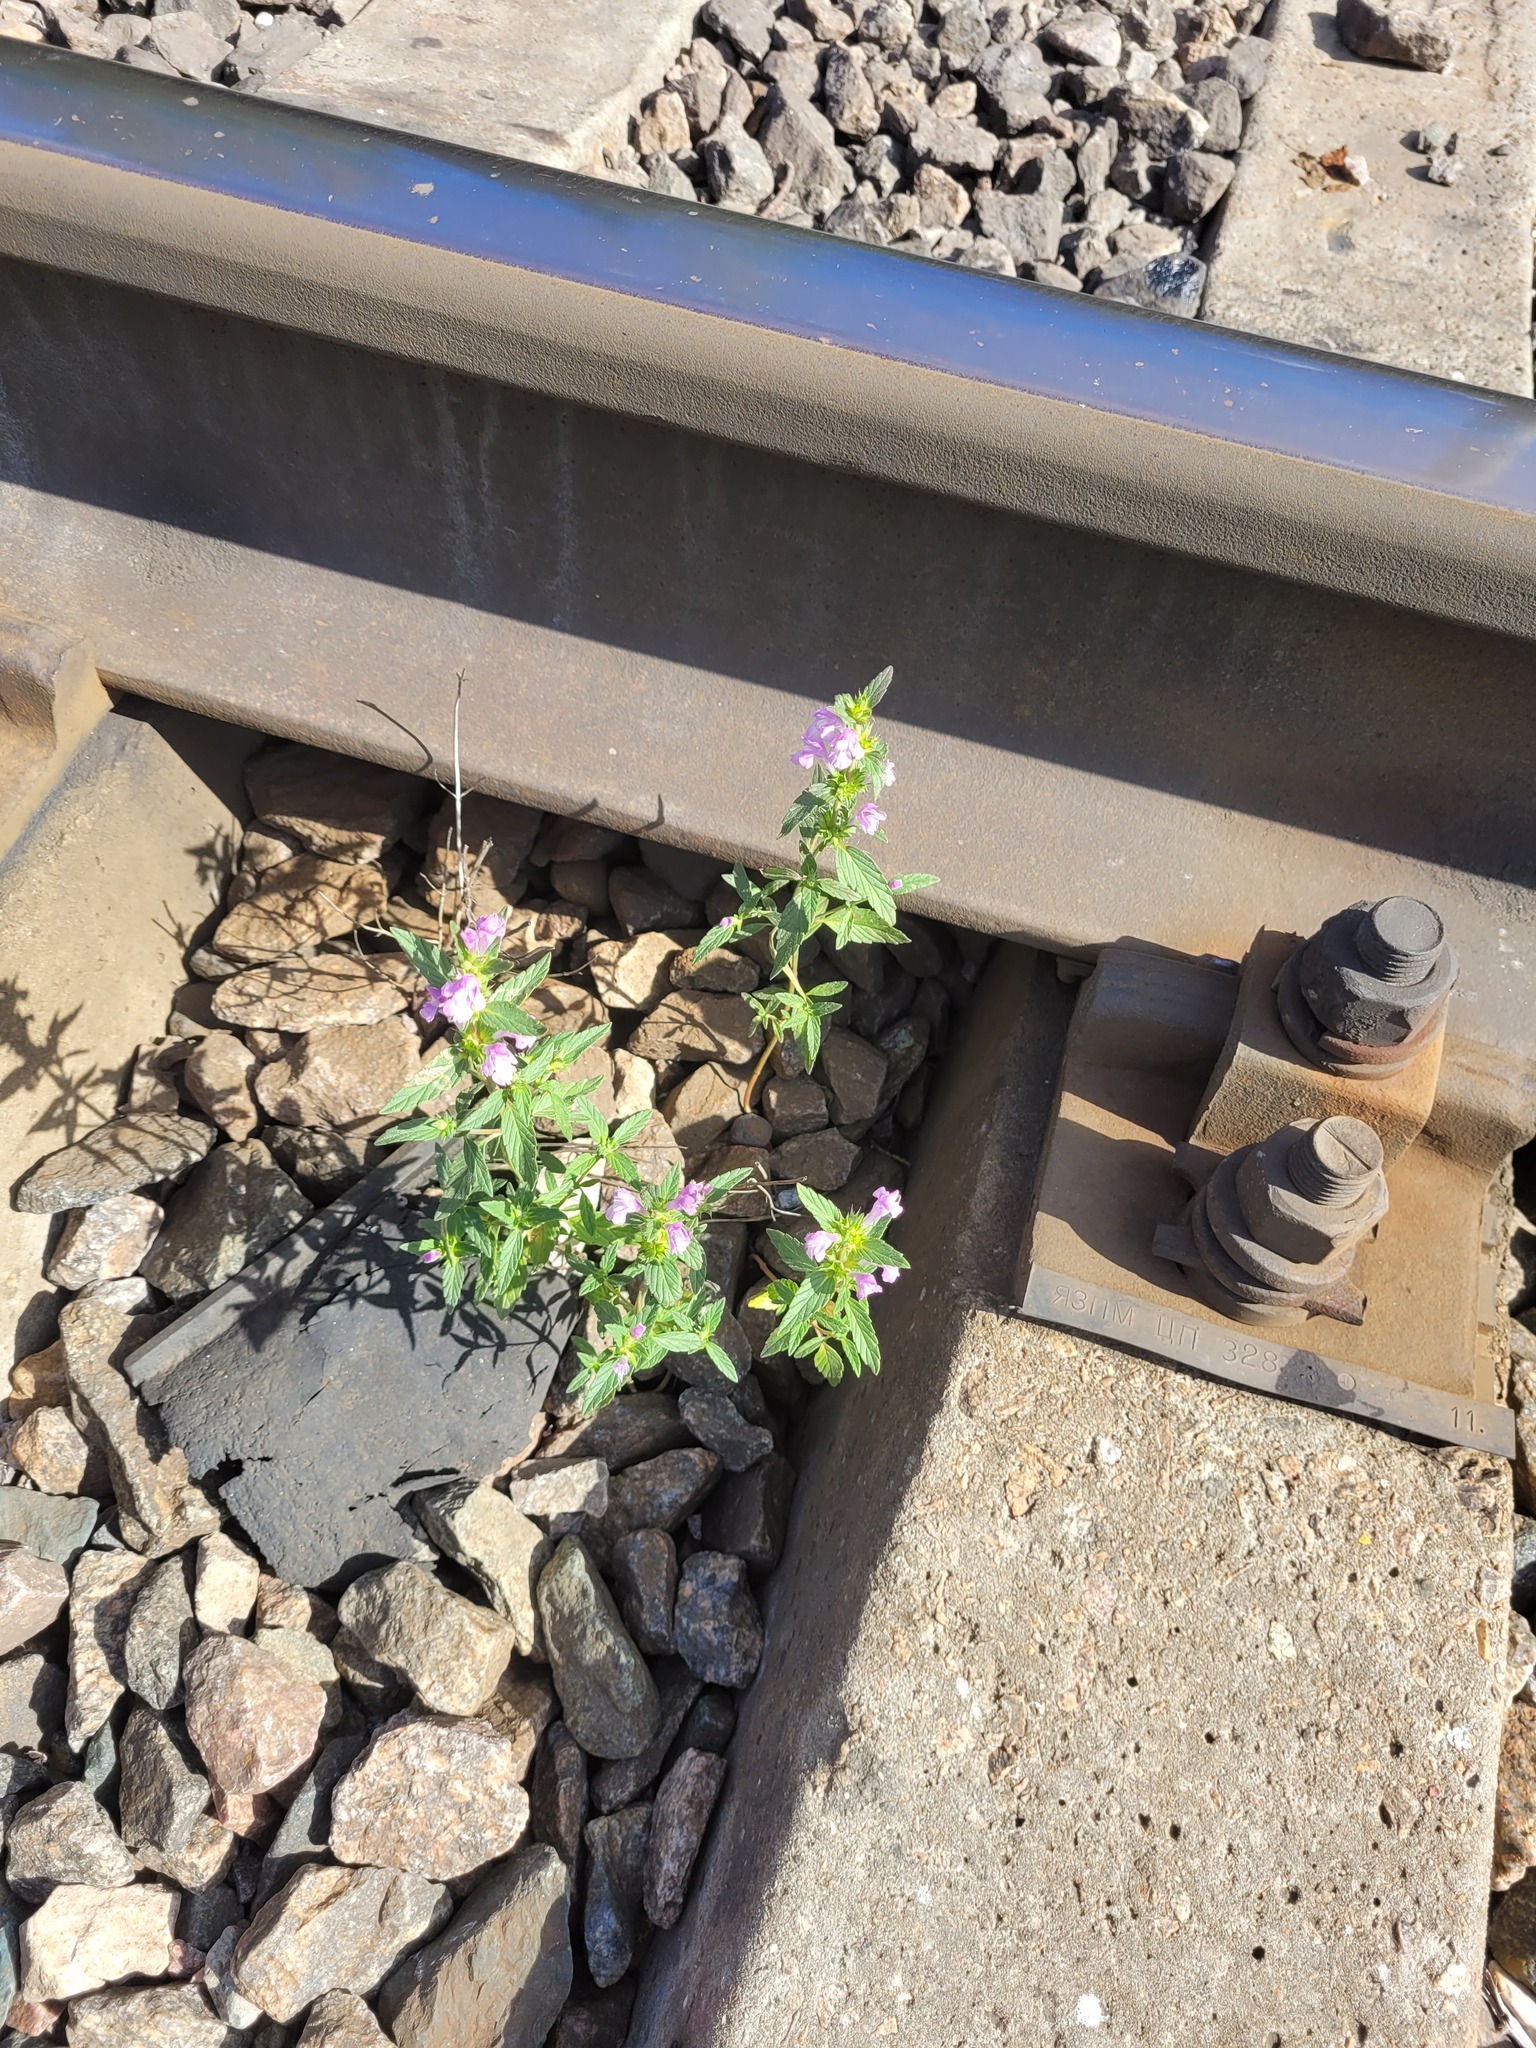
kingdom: Plantae
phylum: Tracheophyta
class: Magnoliopsida
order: Lamiales
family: Lamiaceae
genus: Galeopsis
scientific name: Galeopsis ladanum
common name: Broad-leaved hemp-nettle
